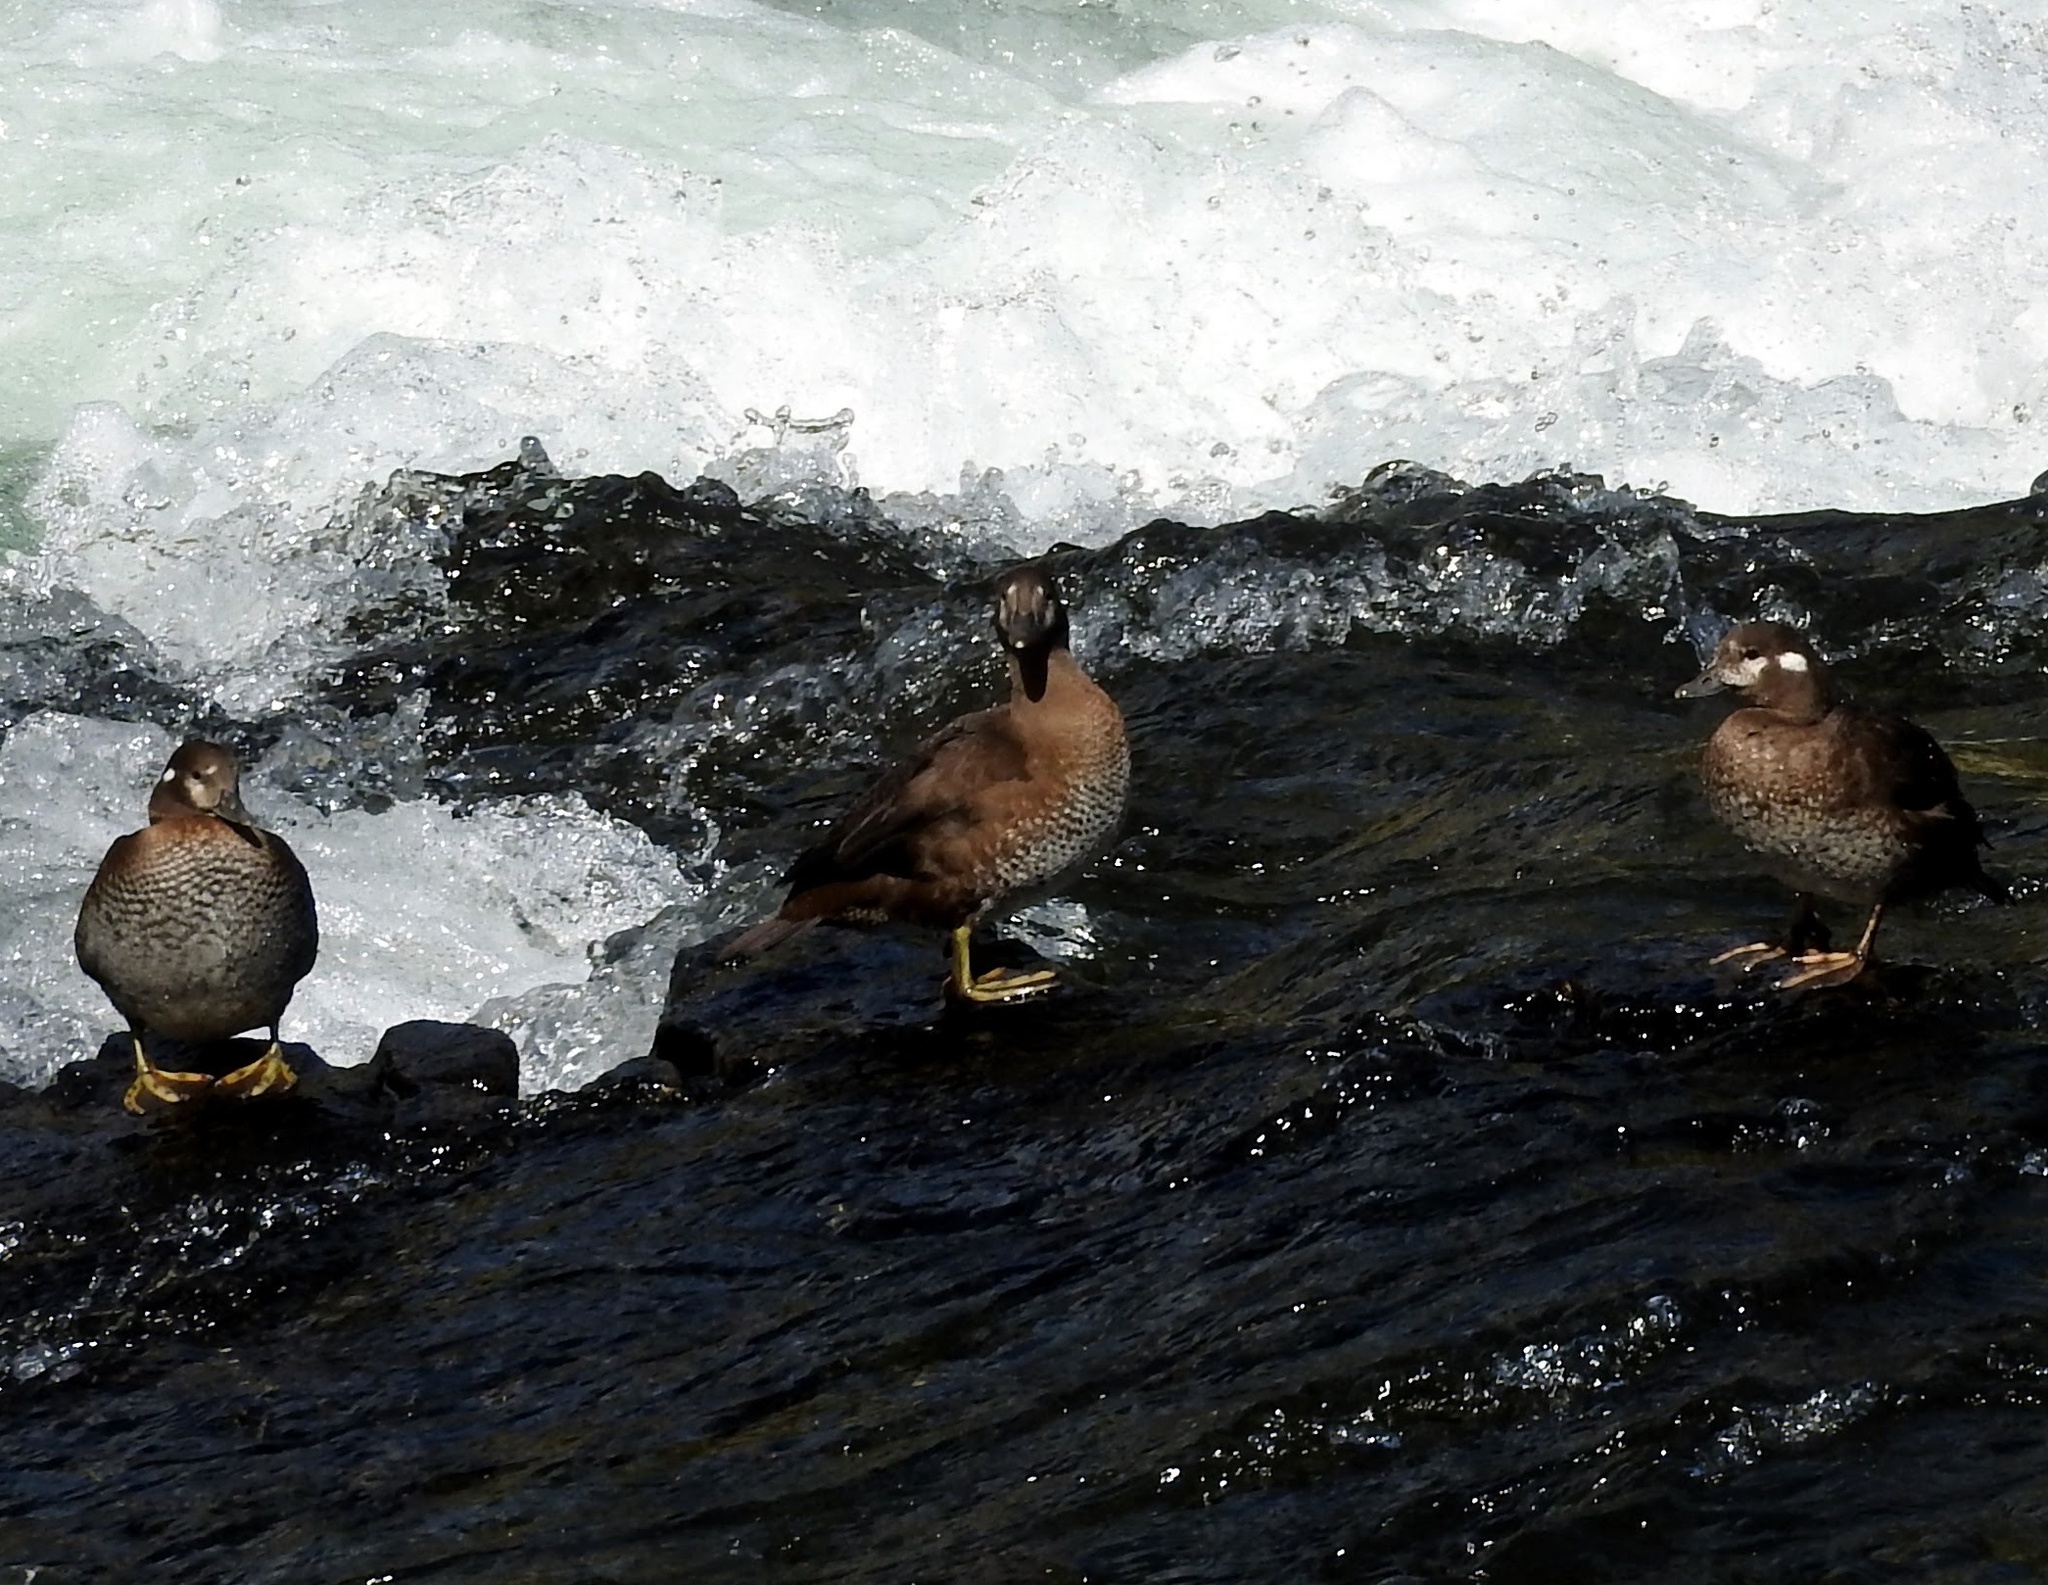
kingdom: Animalia
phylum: Chordata
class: Aves
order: Anseriformes
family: Anatidae
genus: Histrionicus
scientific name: Histrionicus histrionicus
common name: Harlequin duck
